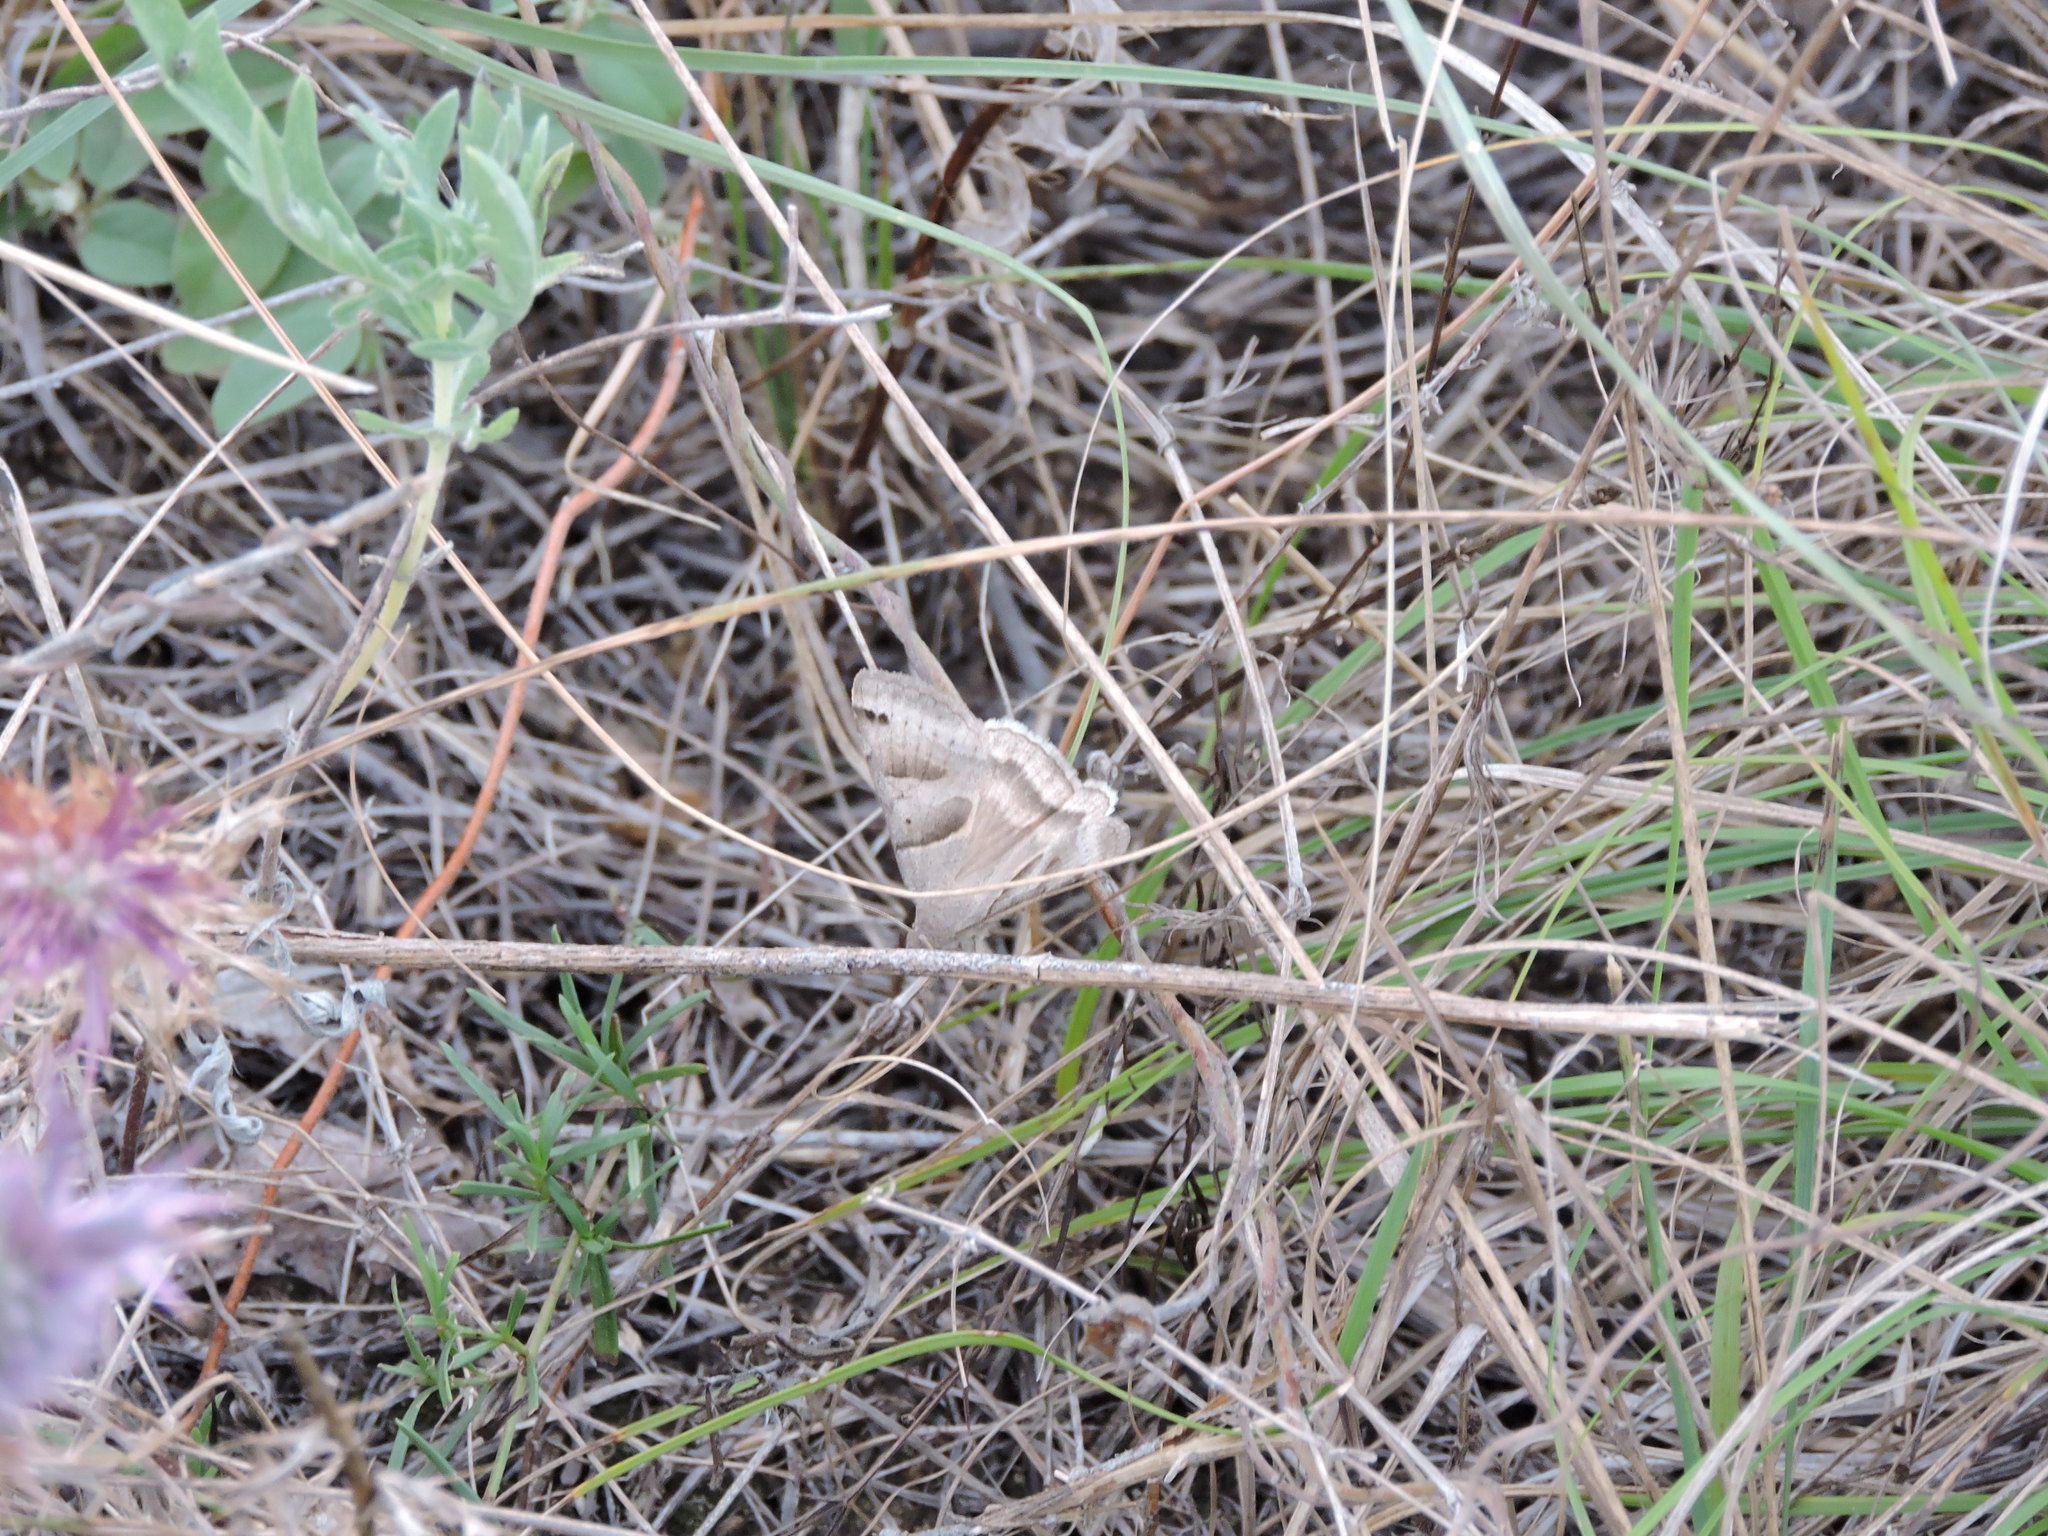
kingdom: Animalia
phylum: Arthropoda
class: Insecta
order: Lepidoptera
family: Erebidae
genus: Caenurgina
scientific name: Caenurgina erechtea
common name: Forage looper moth
